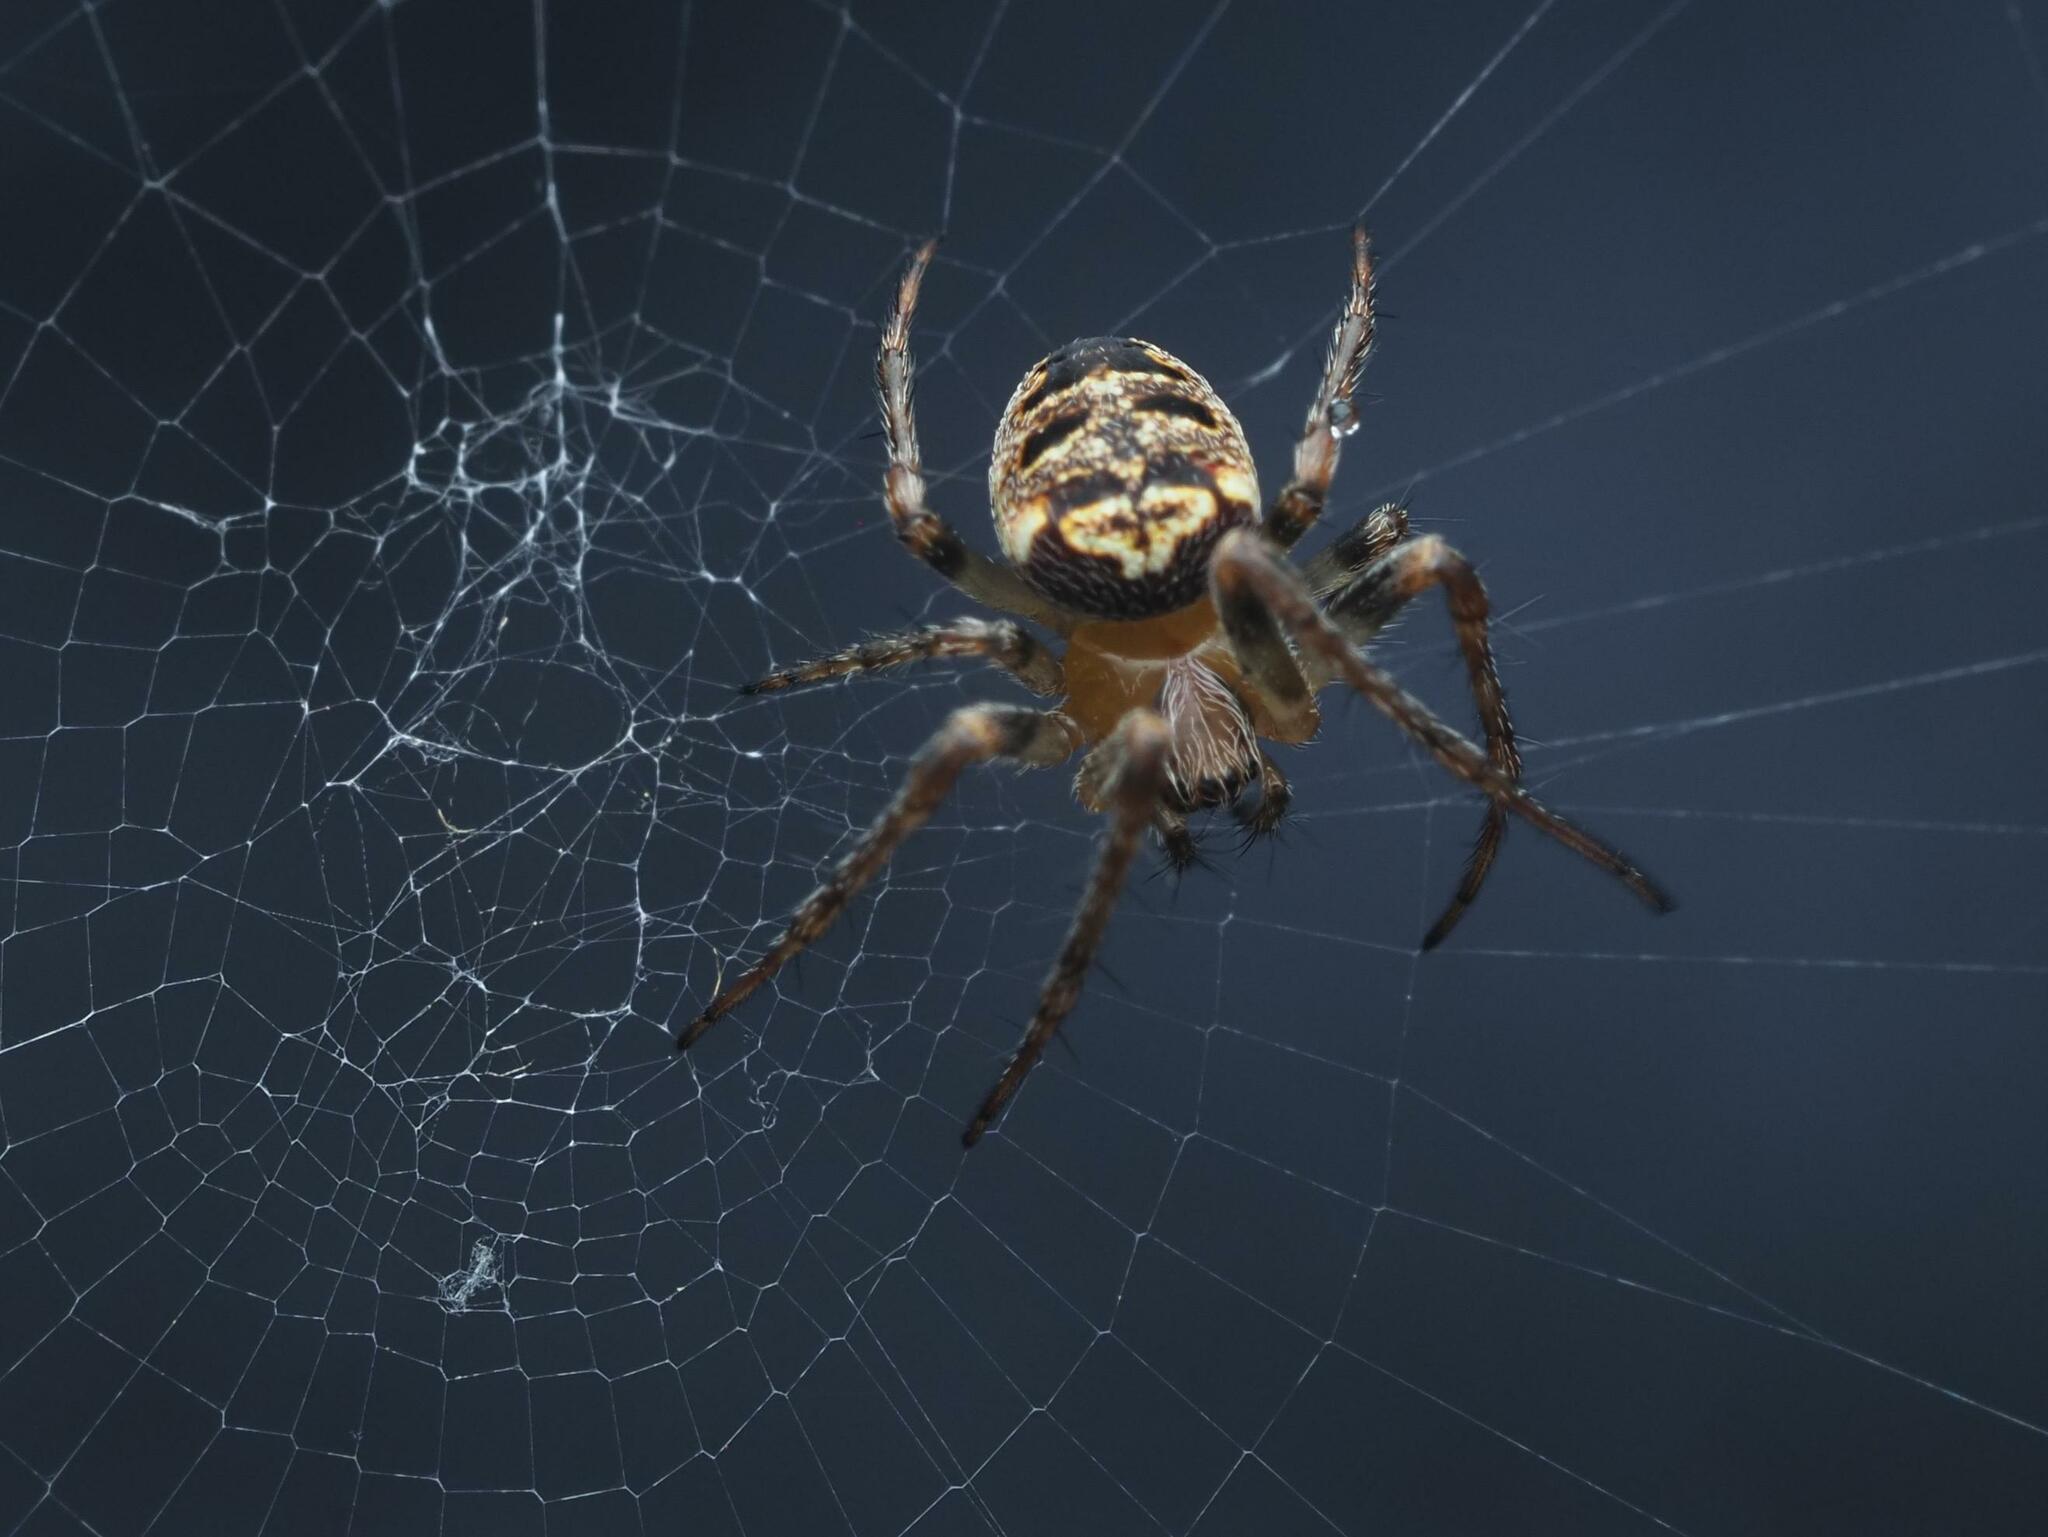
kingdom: Animalia
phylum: Arthropoda
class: Arachnida
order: Araneae
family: Araneidae
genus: Zilla
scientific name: Zilla diodia
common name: Zilla diodia
